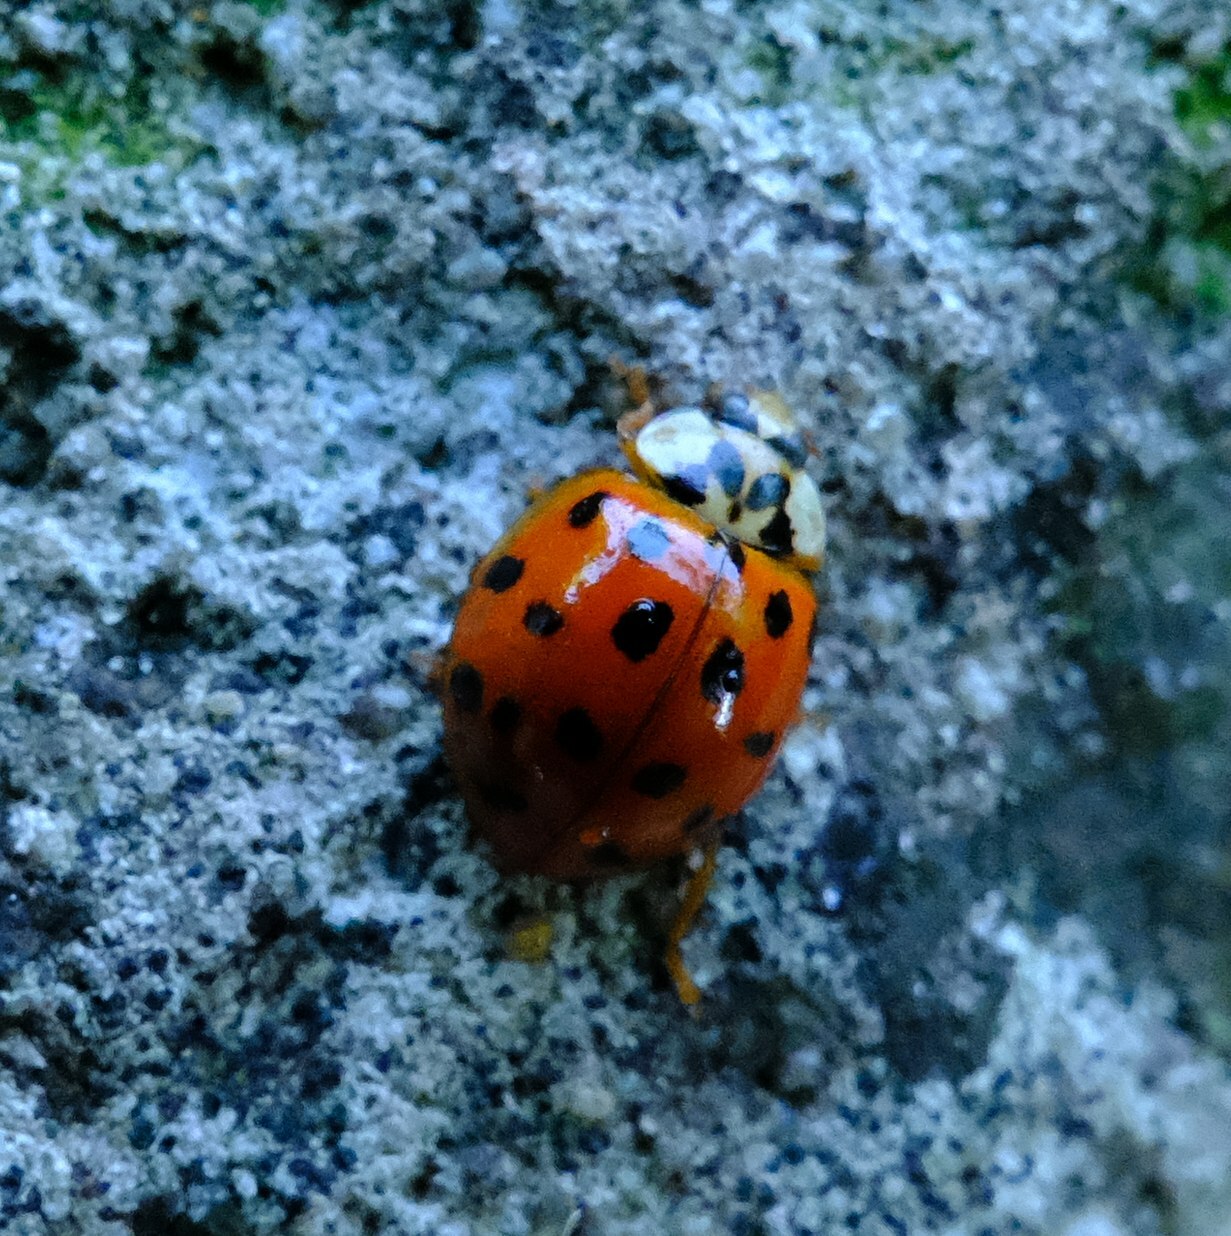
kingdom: Animalia
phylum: Arthropoda
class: Insecta
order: Coleoptera
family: Coccinellidae
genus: Harmonia
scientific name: Harmonia axyridis
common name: Harlequin ladybird
